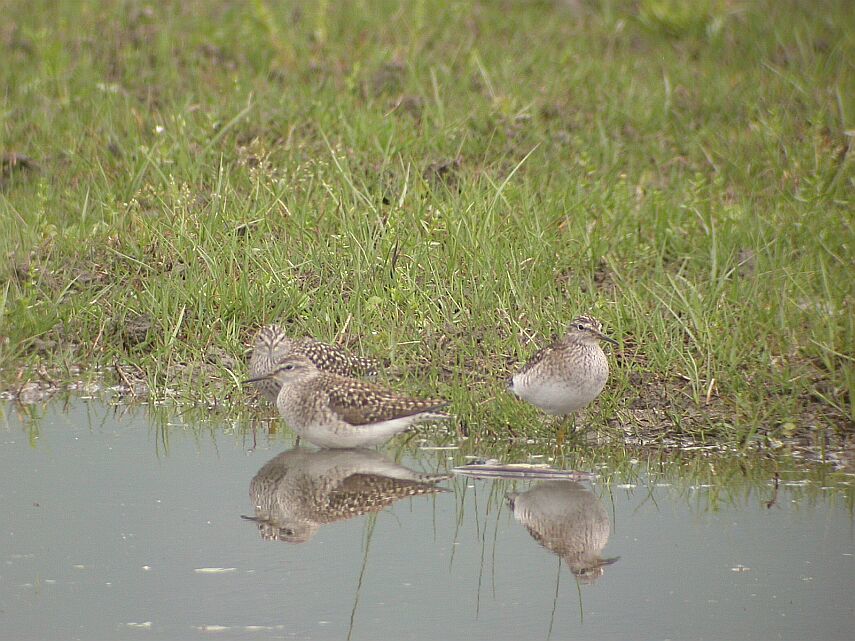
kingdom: Animalia
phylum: Chordata
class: Aves
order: Charadriiformes
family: Scolopacidae
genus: Tringa
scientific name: Tringa glareola
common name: Wood sandpiper
